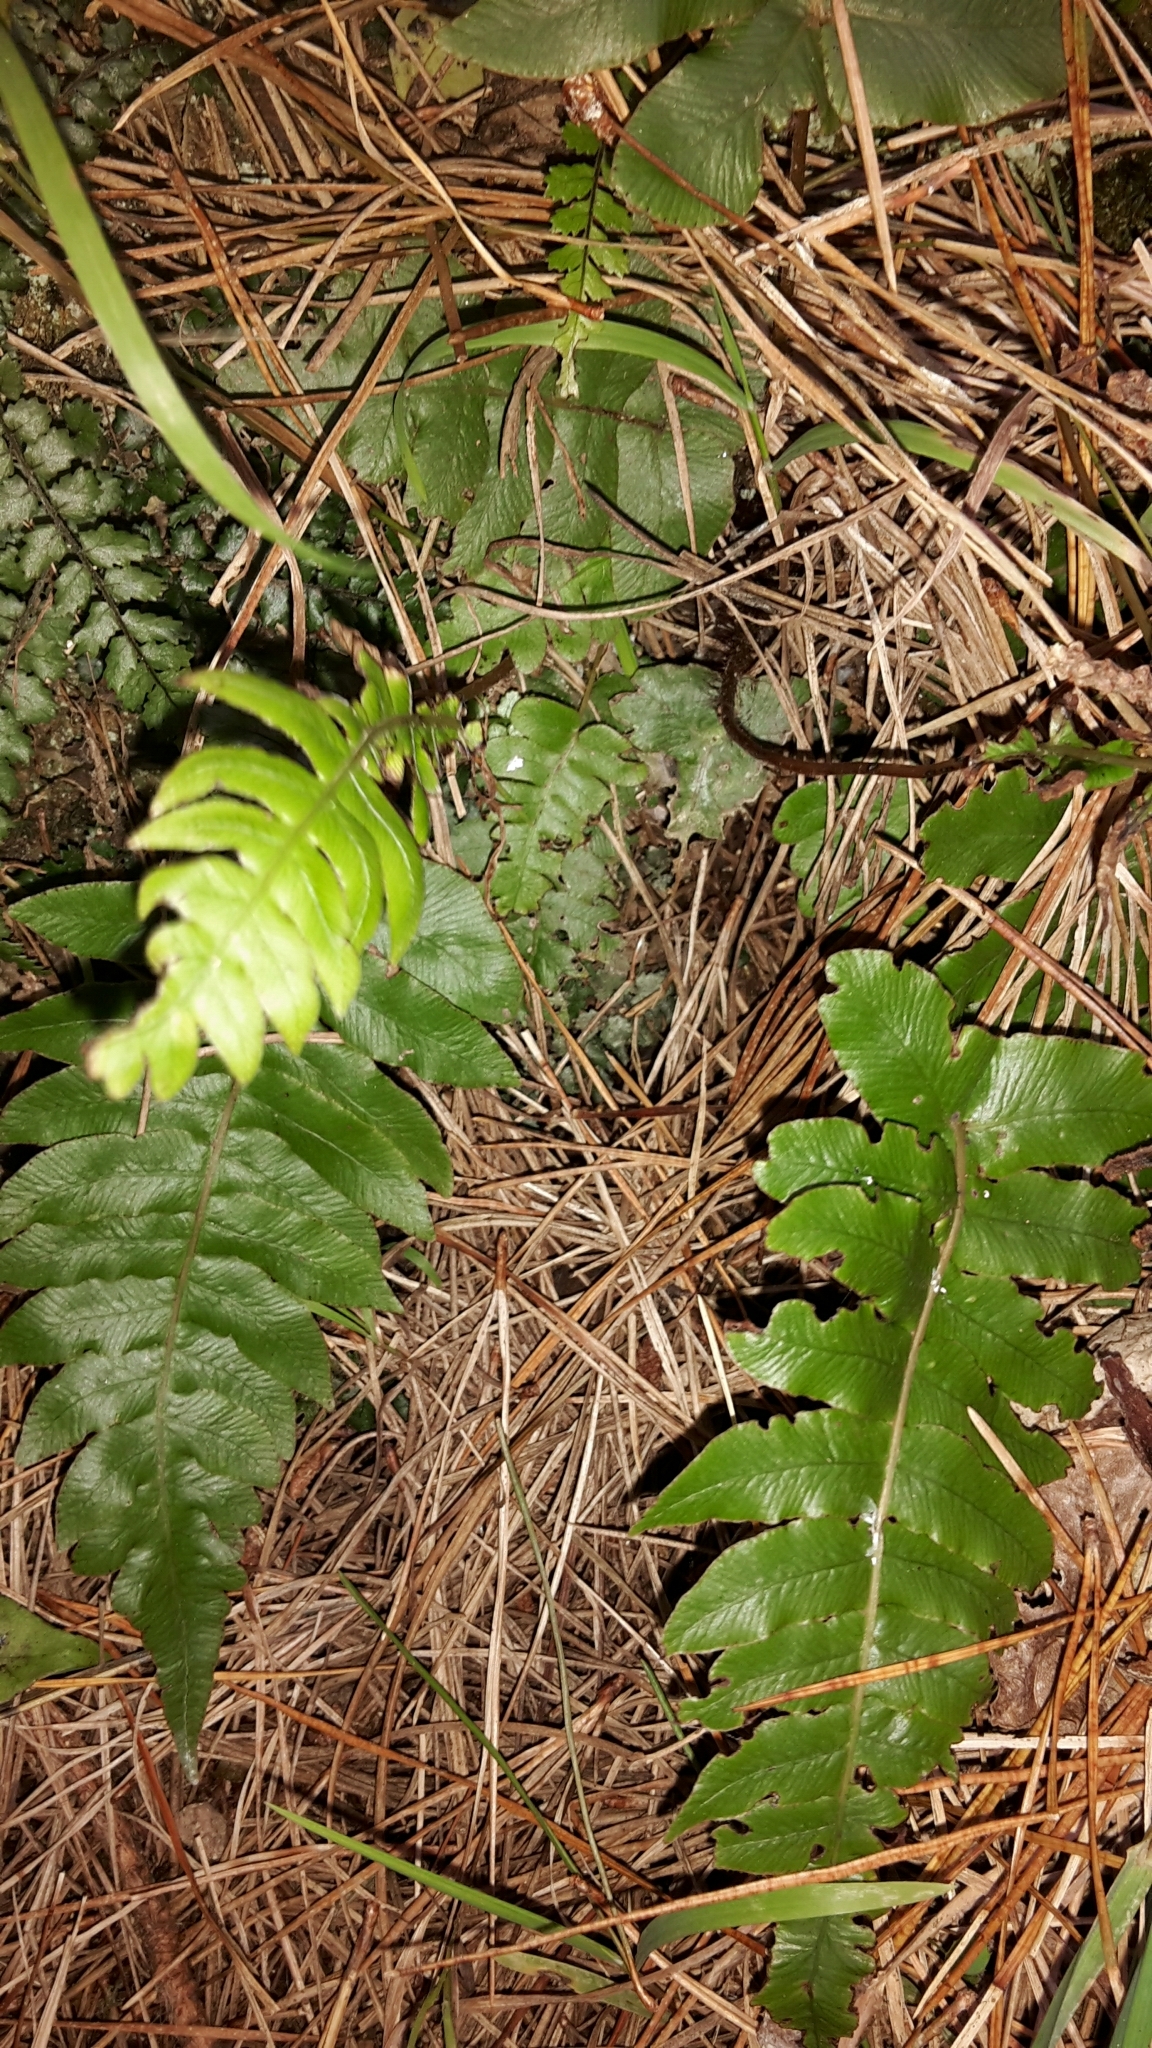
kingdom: Plantae
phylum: Tracheophyta
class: Polypodiopsida
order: Polypodiales
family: Blechnaceae
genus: Cranfillia
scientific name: Cranfillia deltoides
